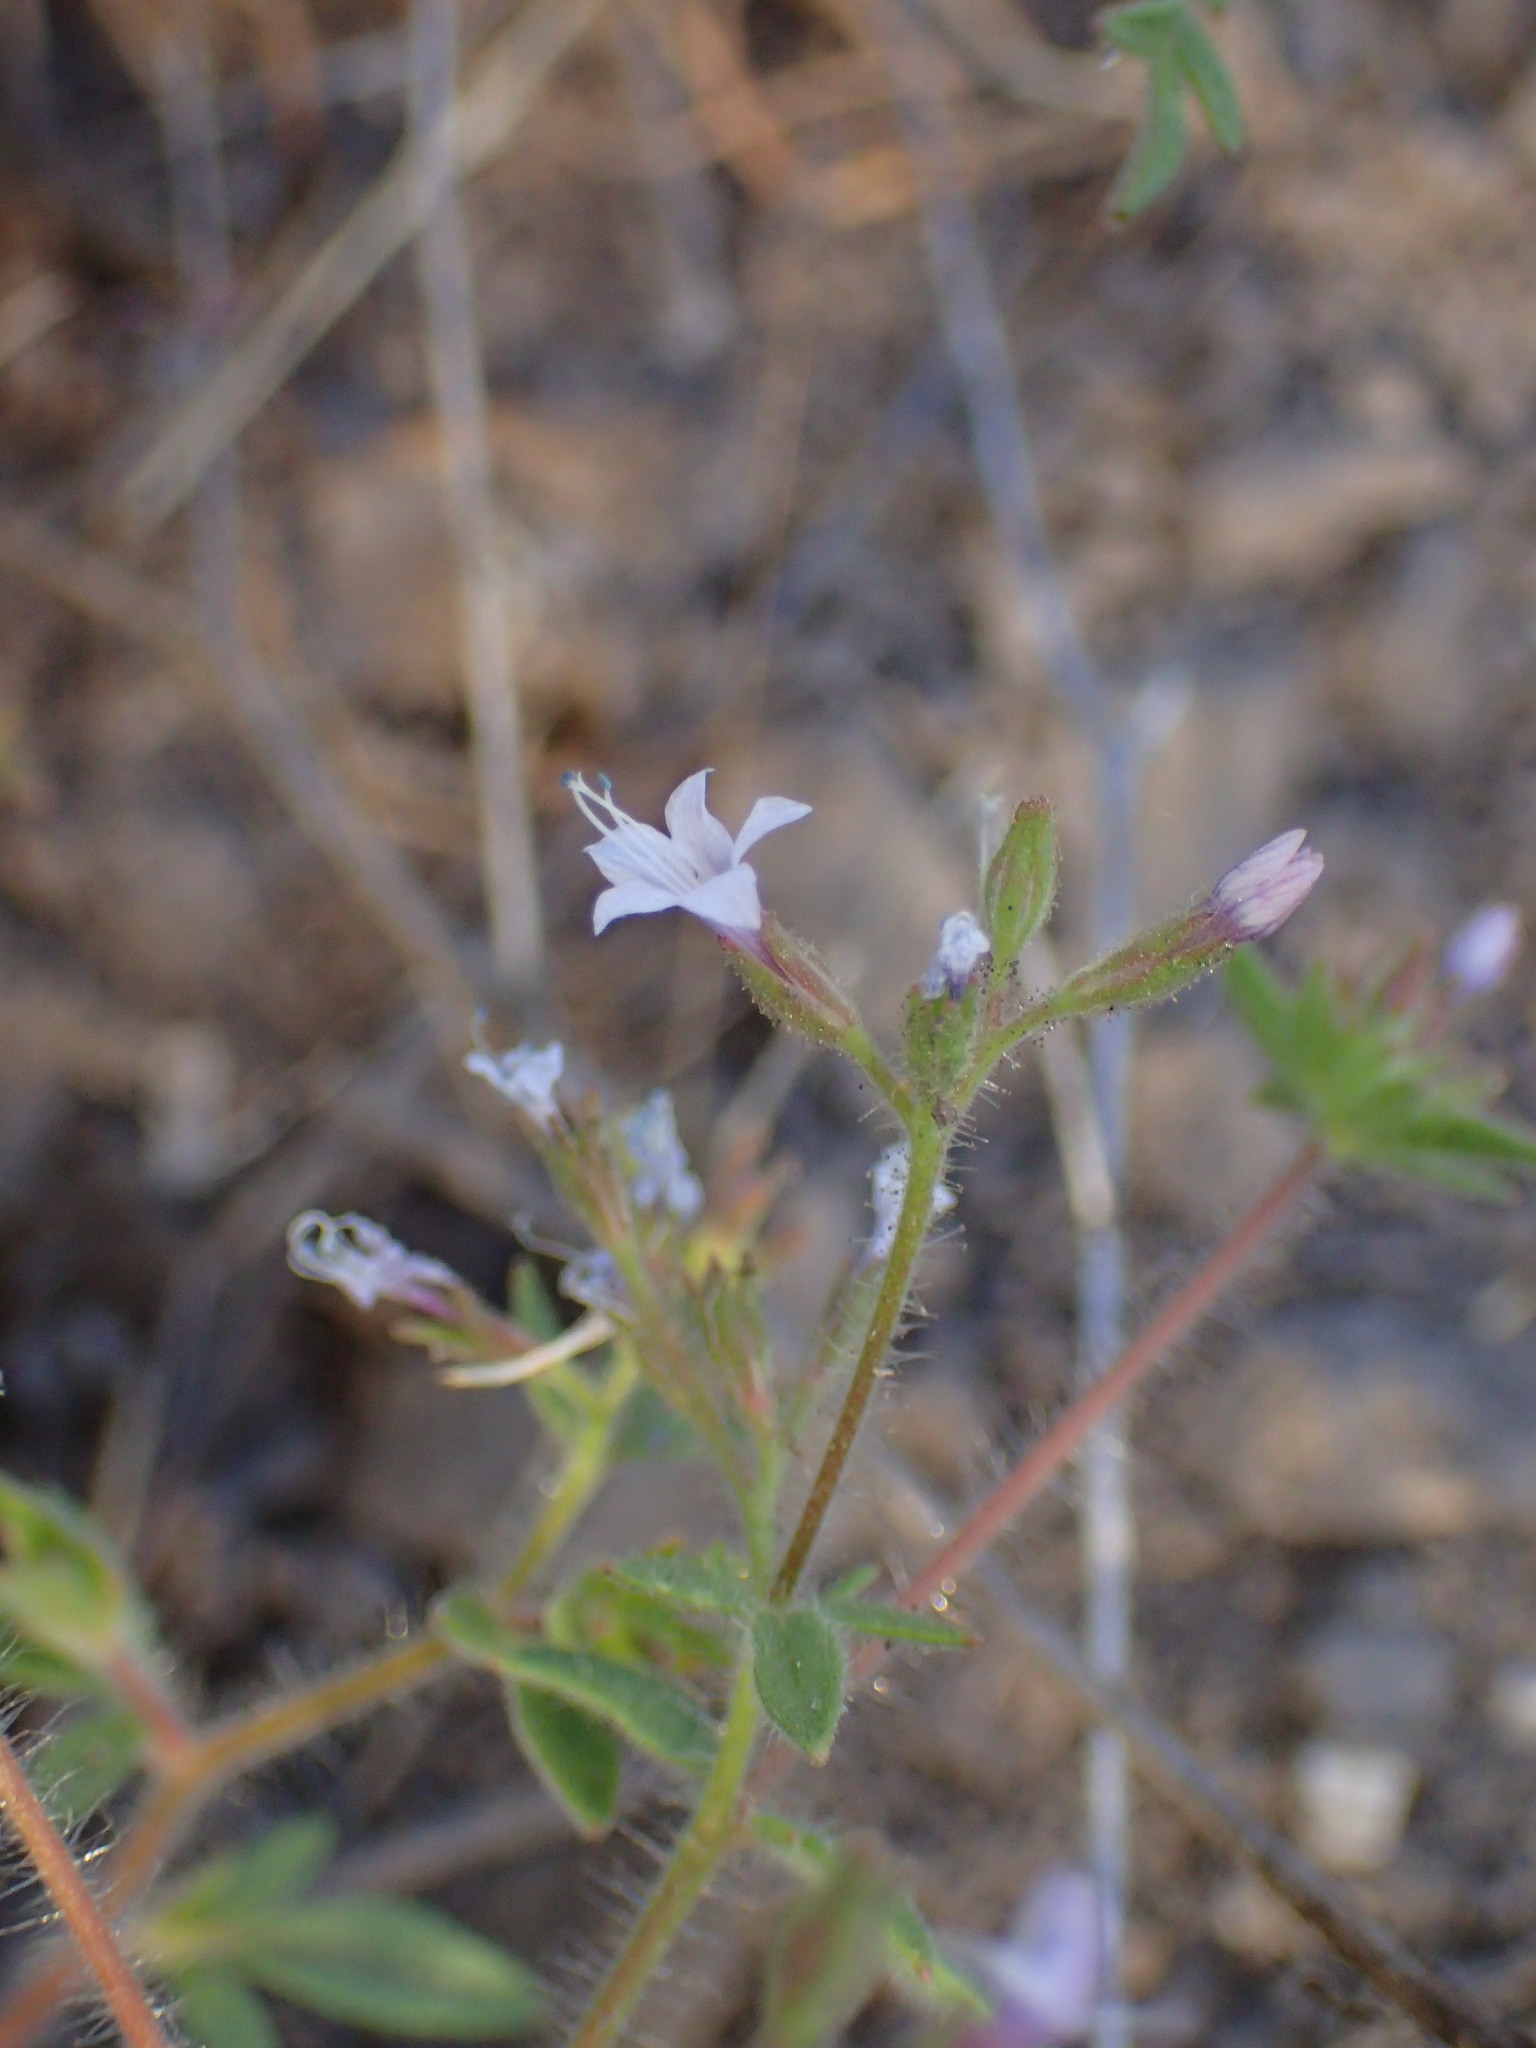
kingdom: Plantae
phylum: Tracheophyta
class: Magnoliopsida
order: Ericales
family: Polemoniaceae
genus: Allophyllum
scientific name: Allophyllum glutinosum
